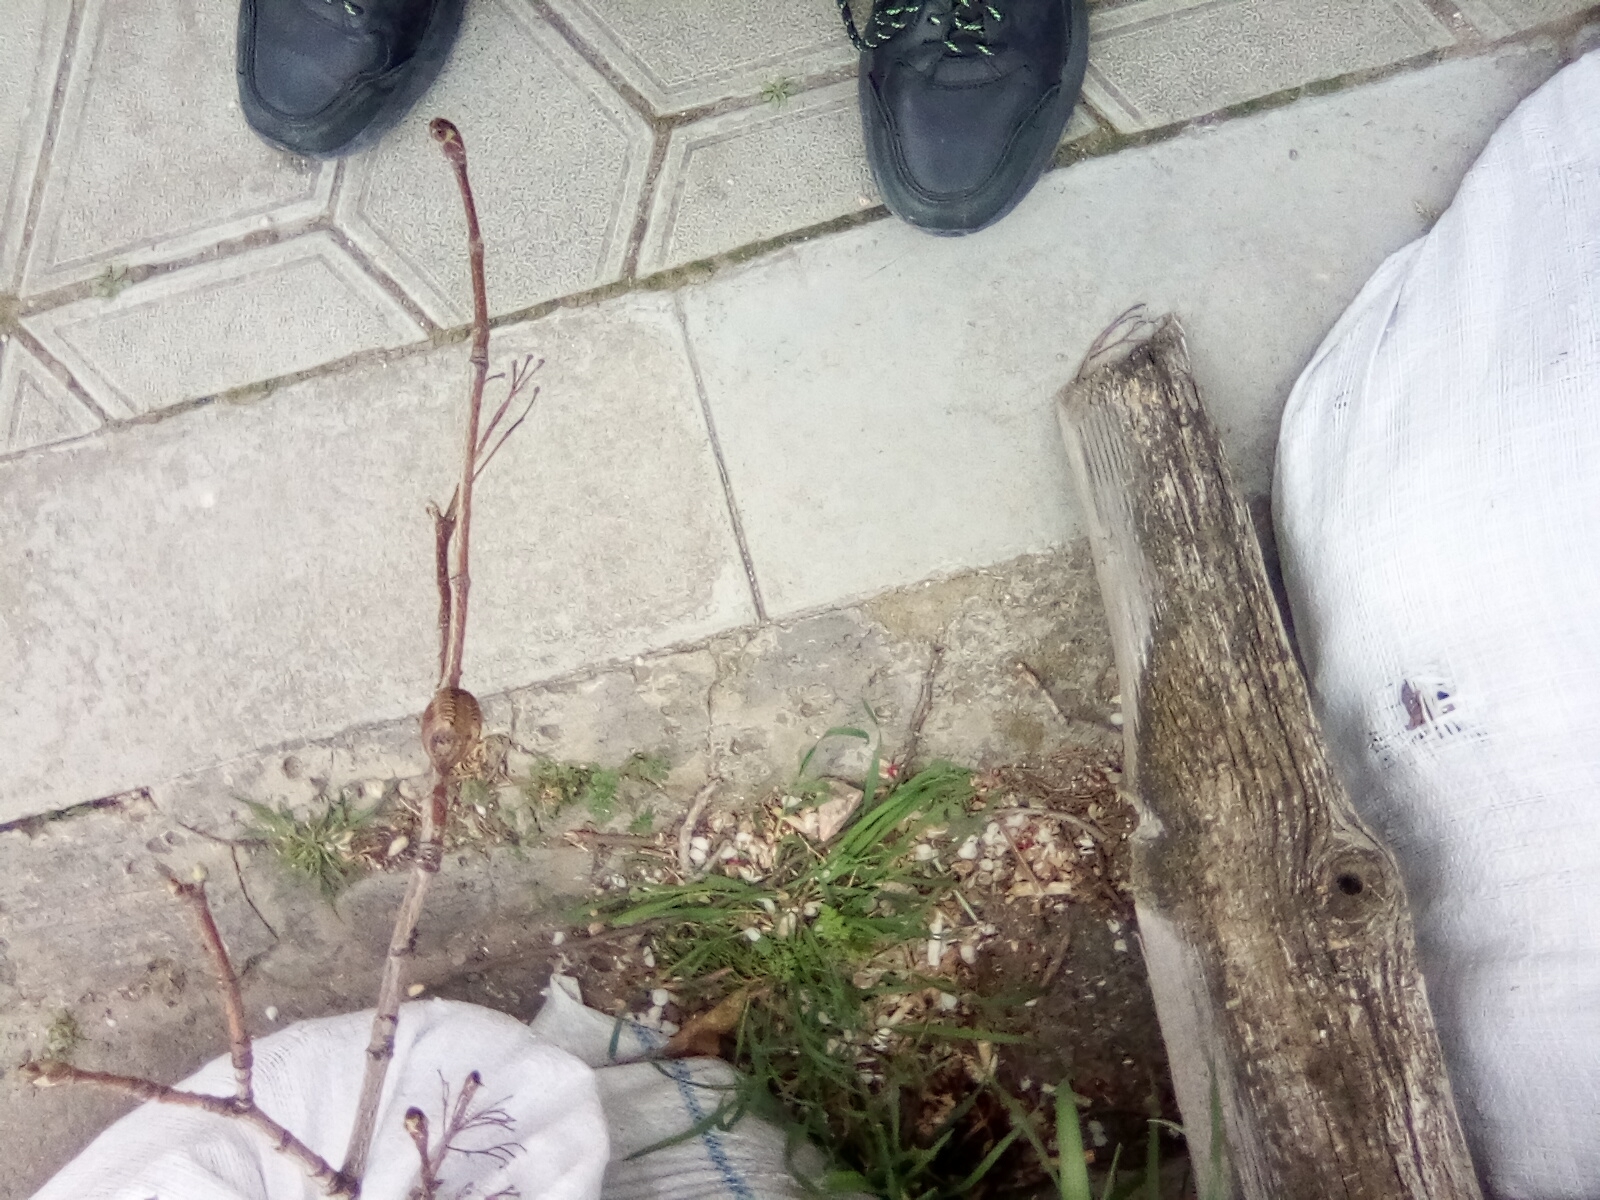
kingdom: Animalia
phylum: Arthropoda
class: Insecta
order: Mantodea
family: Mantidae
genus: Hierodula
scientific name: Hierodula transcaucasica
